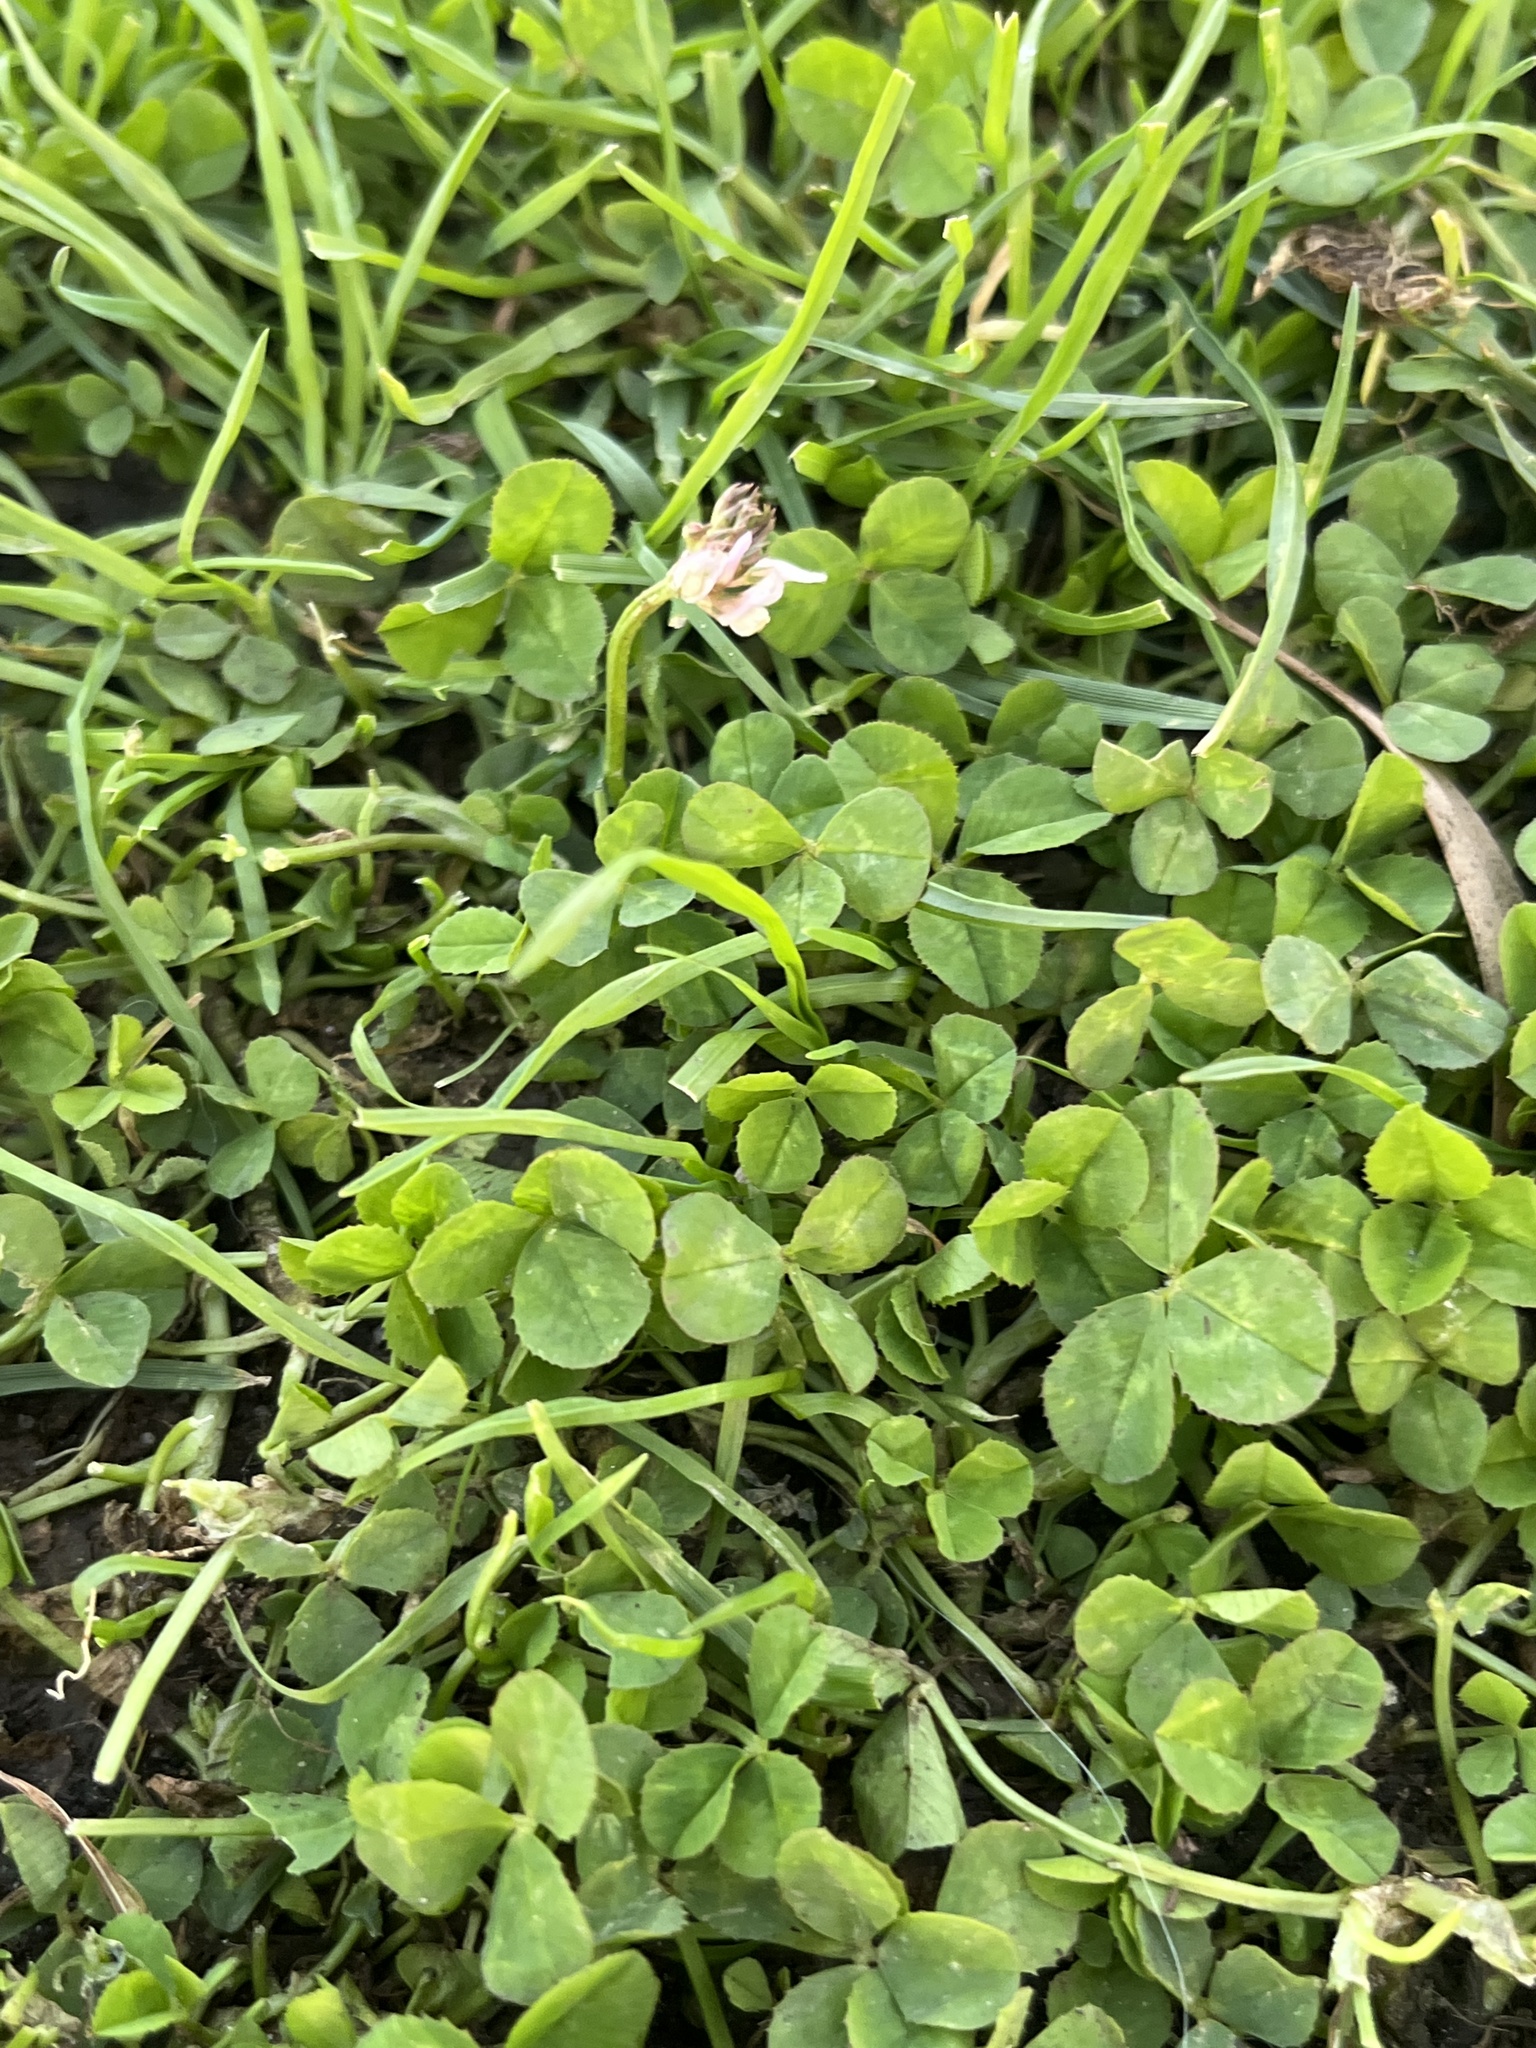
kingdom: Plantae
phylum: Tracheophyta
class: Magnoliopsida
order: Fabales
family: Fabaceae
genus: Trifolium
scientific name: Trifolium repens
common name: White clover
